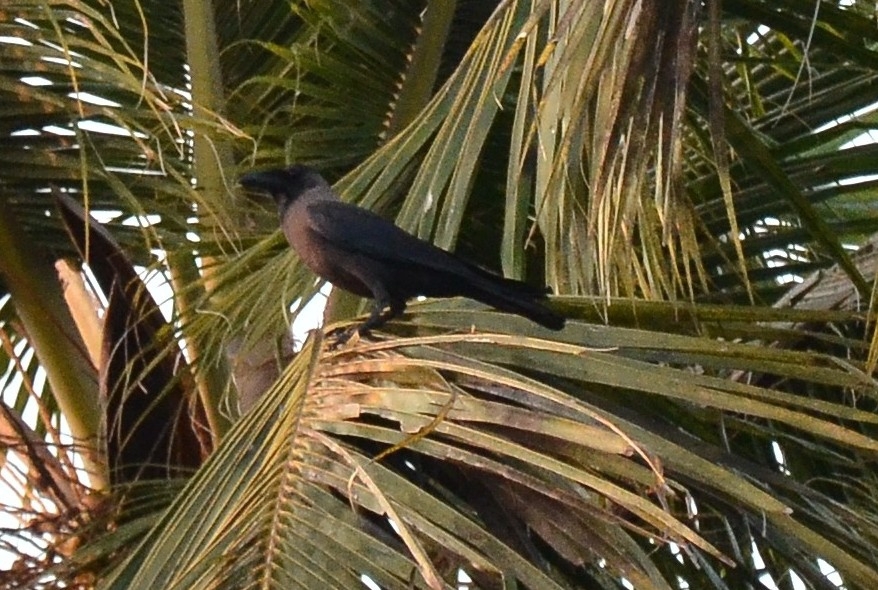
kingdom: Animalia
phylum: Chordata
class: Aves
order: Passeriformes
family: Corvidae
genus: Corvus
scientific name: Corvus splendens
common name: House crow
